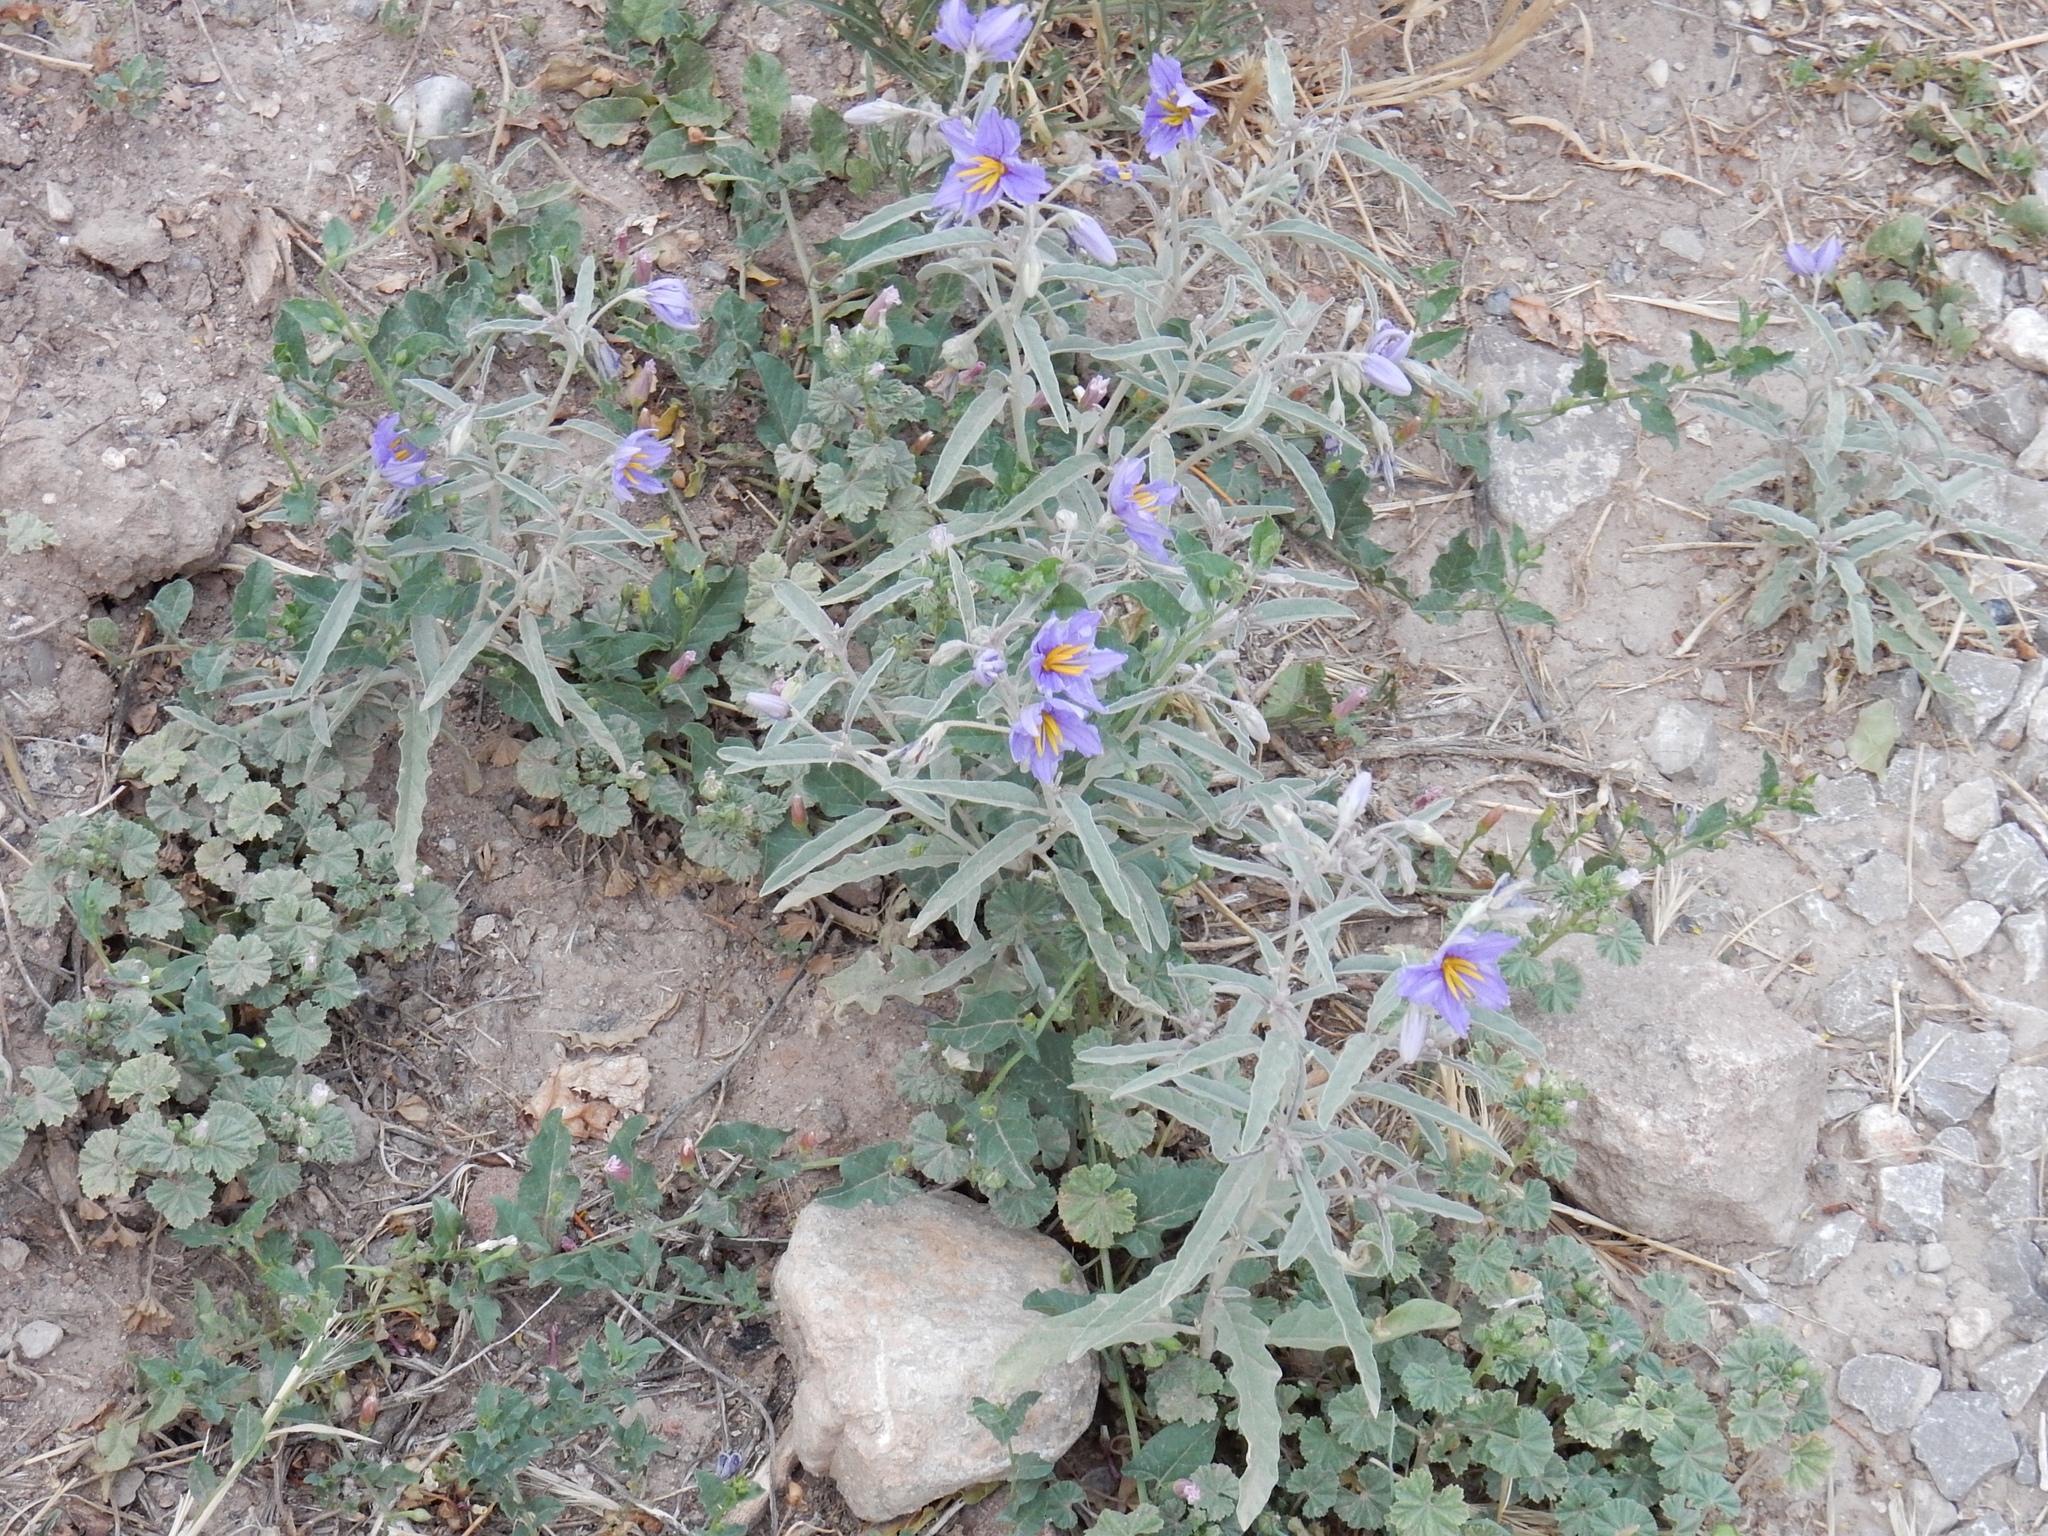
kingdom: Plantae
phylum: Tracheophyta
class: Magnoliopsida
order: Solanales
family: Solanaceae
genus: Solanum
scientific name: Solanum elaeagnifolium
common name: Silverleaf nightshade
